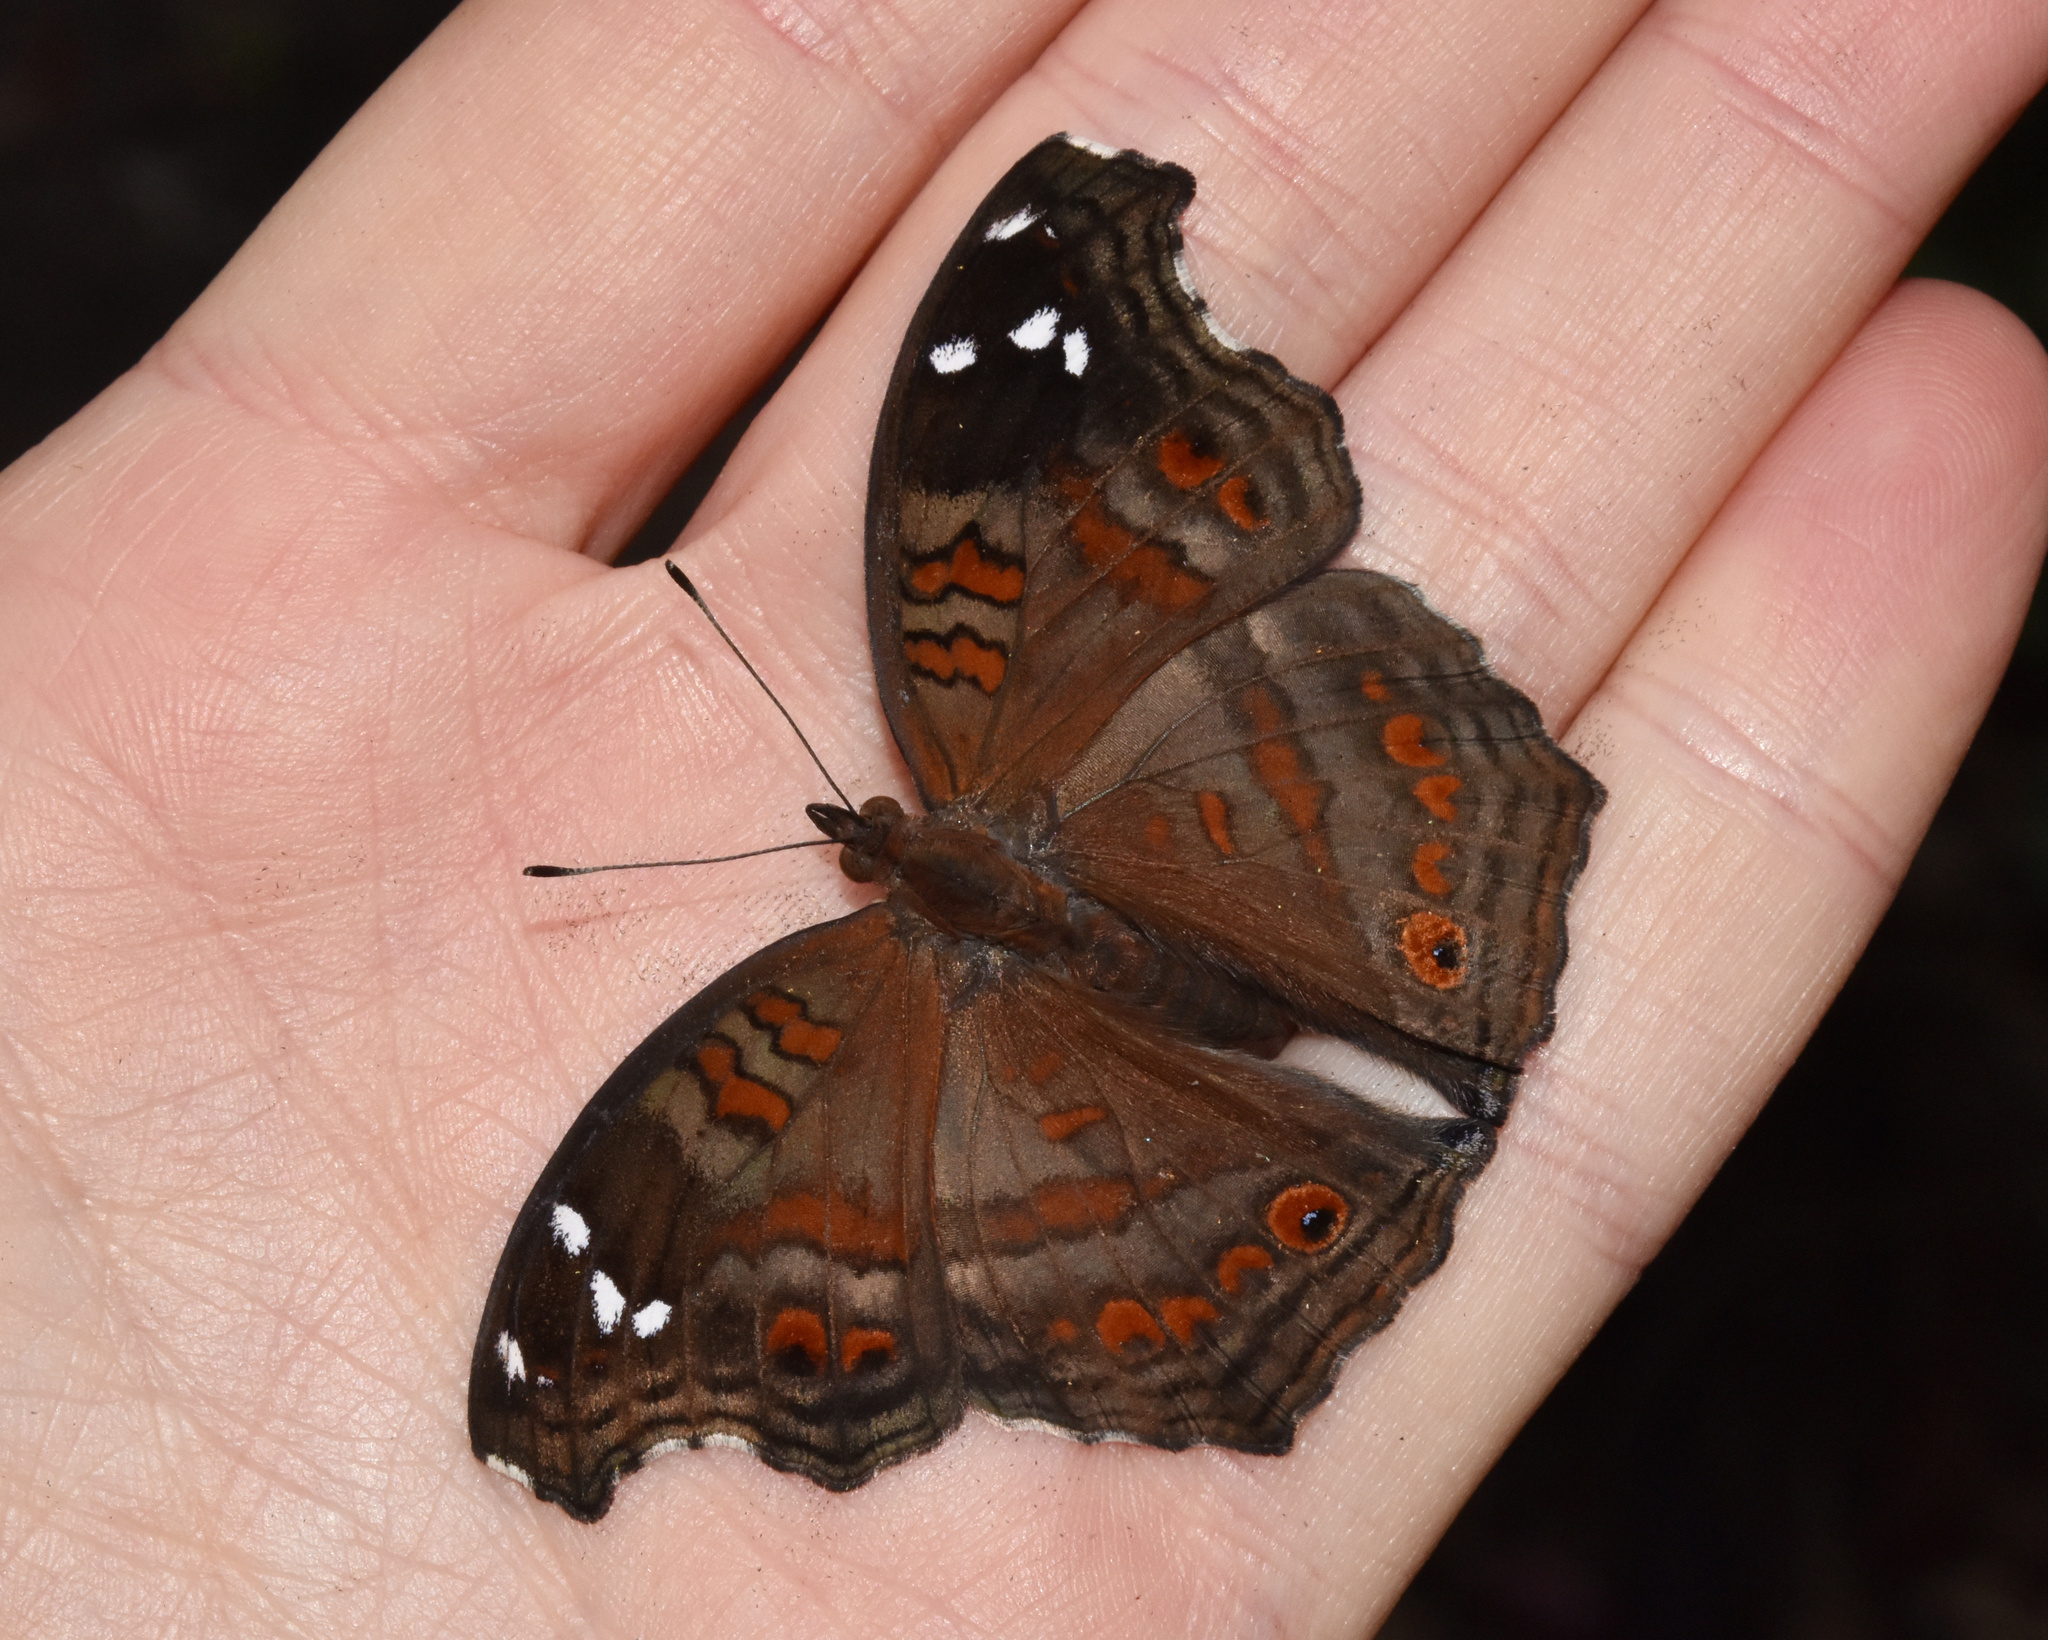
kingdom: Animalia
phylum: Arthropoda
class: Insecta
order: Lepidoptera
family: Nymphalidae
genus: Junonia
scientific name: Junonia natalica
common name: Brown pansy
